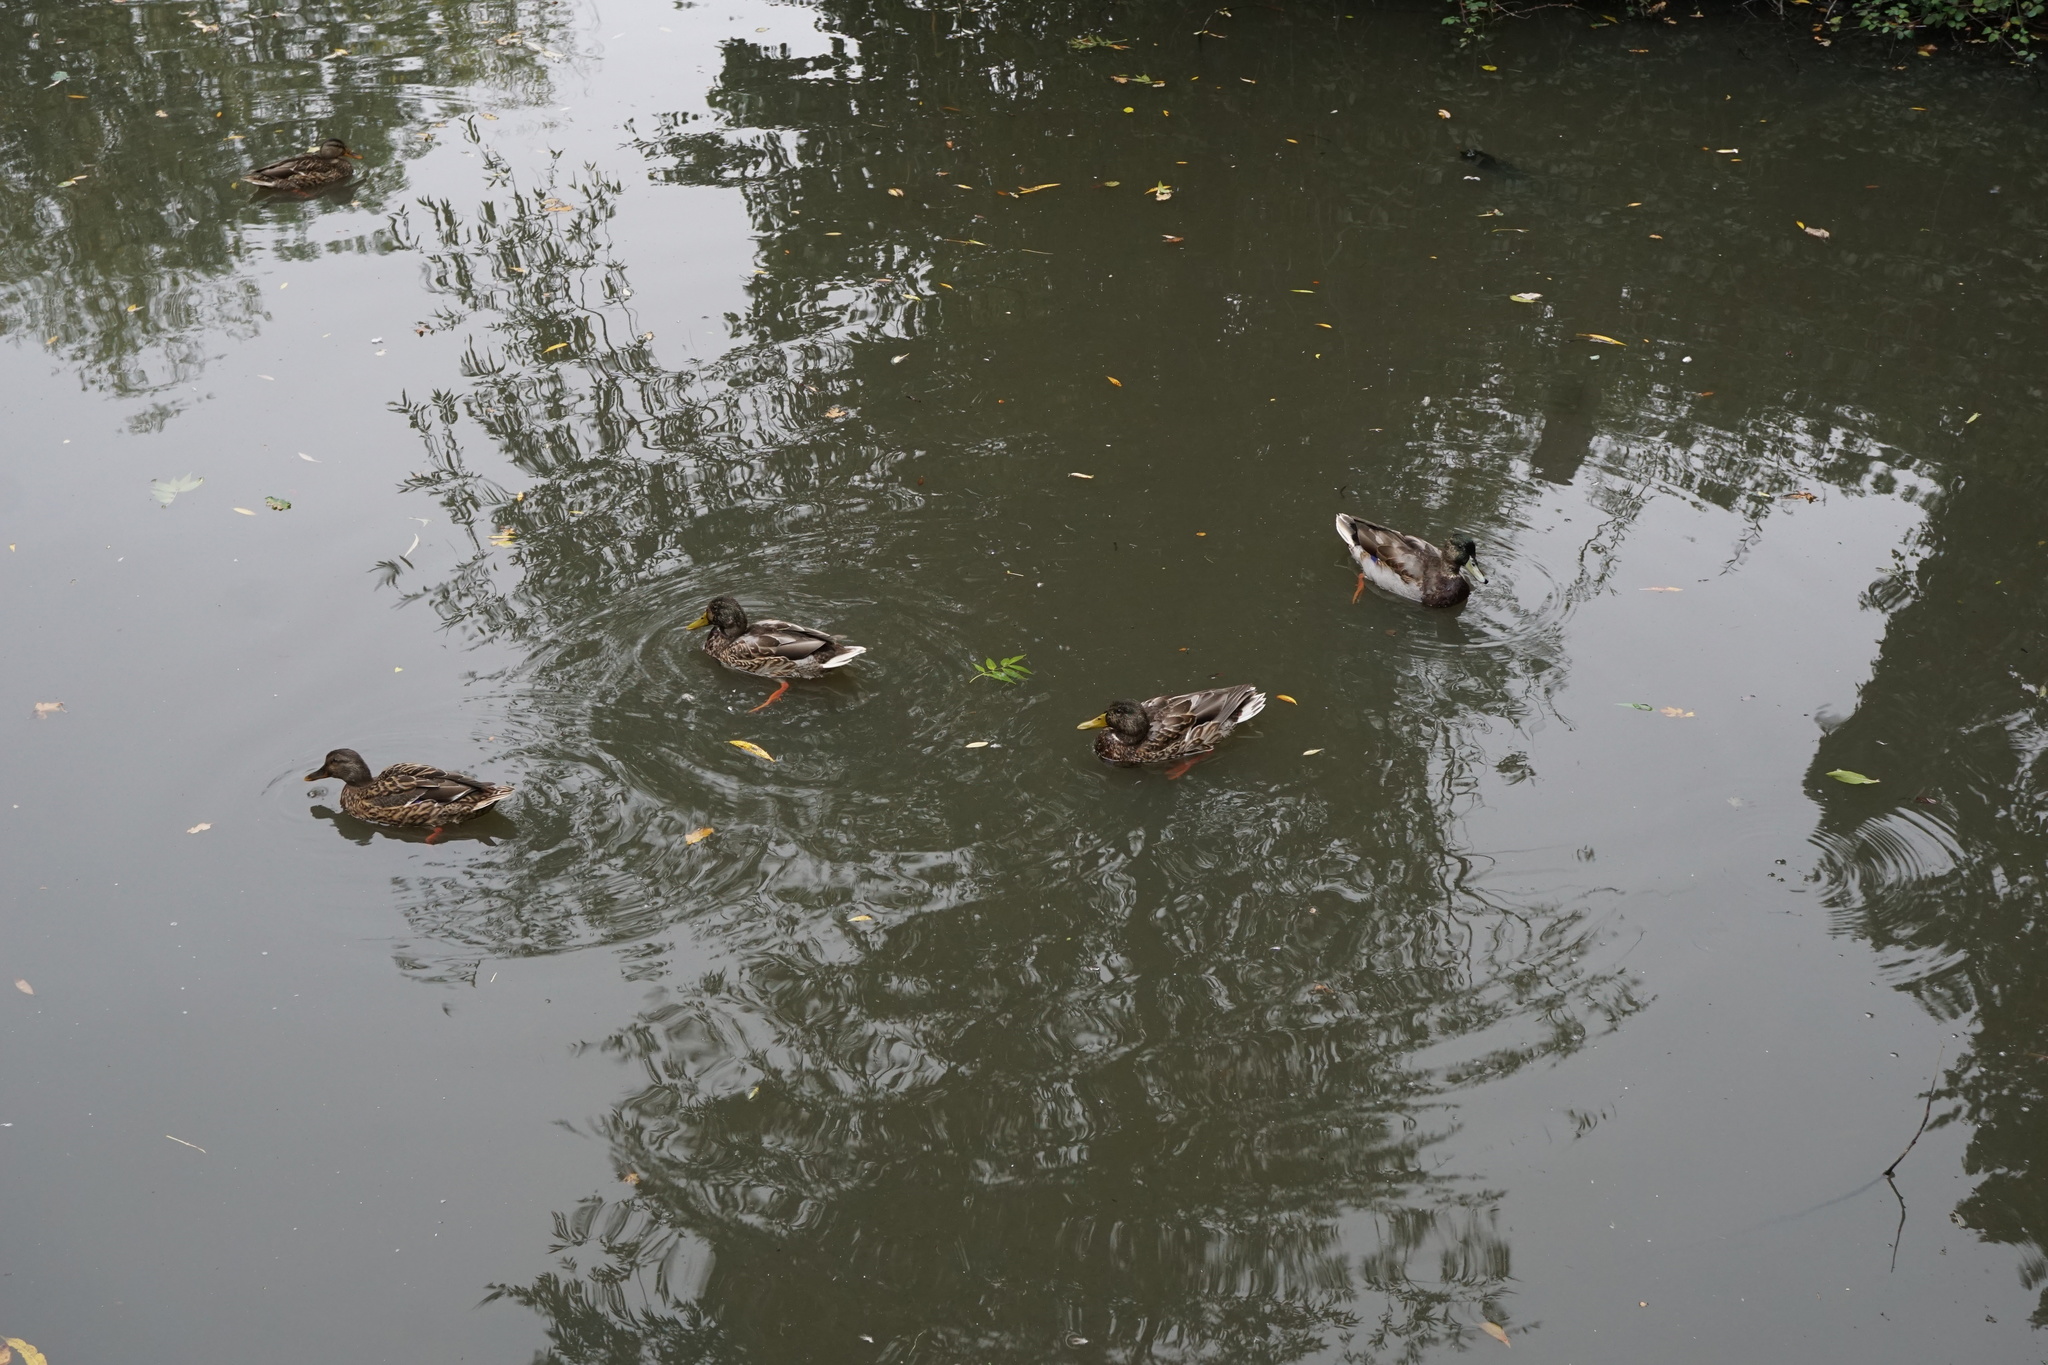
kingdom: Animalia
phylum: Chordata
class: Aves
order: Anseriformes
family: Anatidae
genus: Anas
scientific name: Anas platyrhynchos
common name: Mallard
